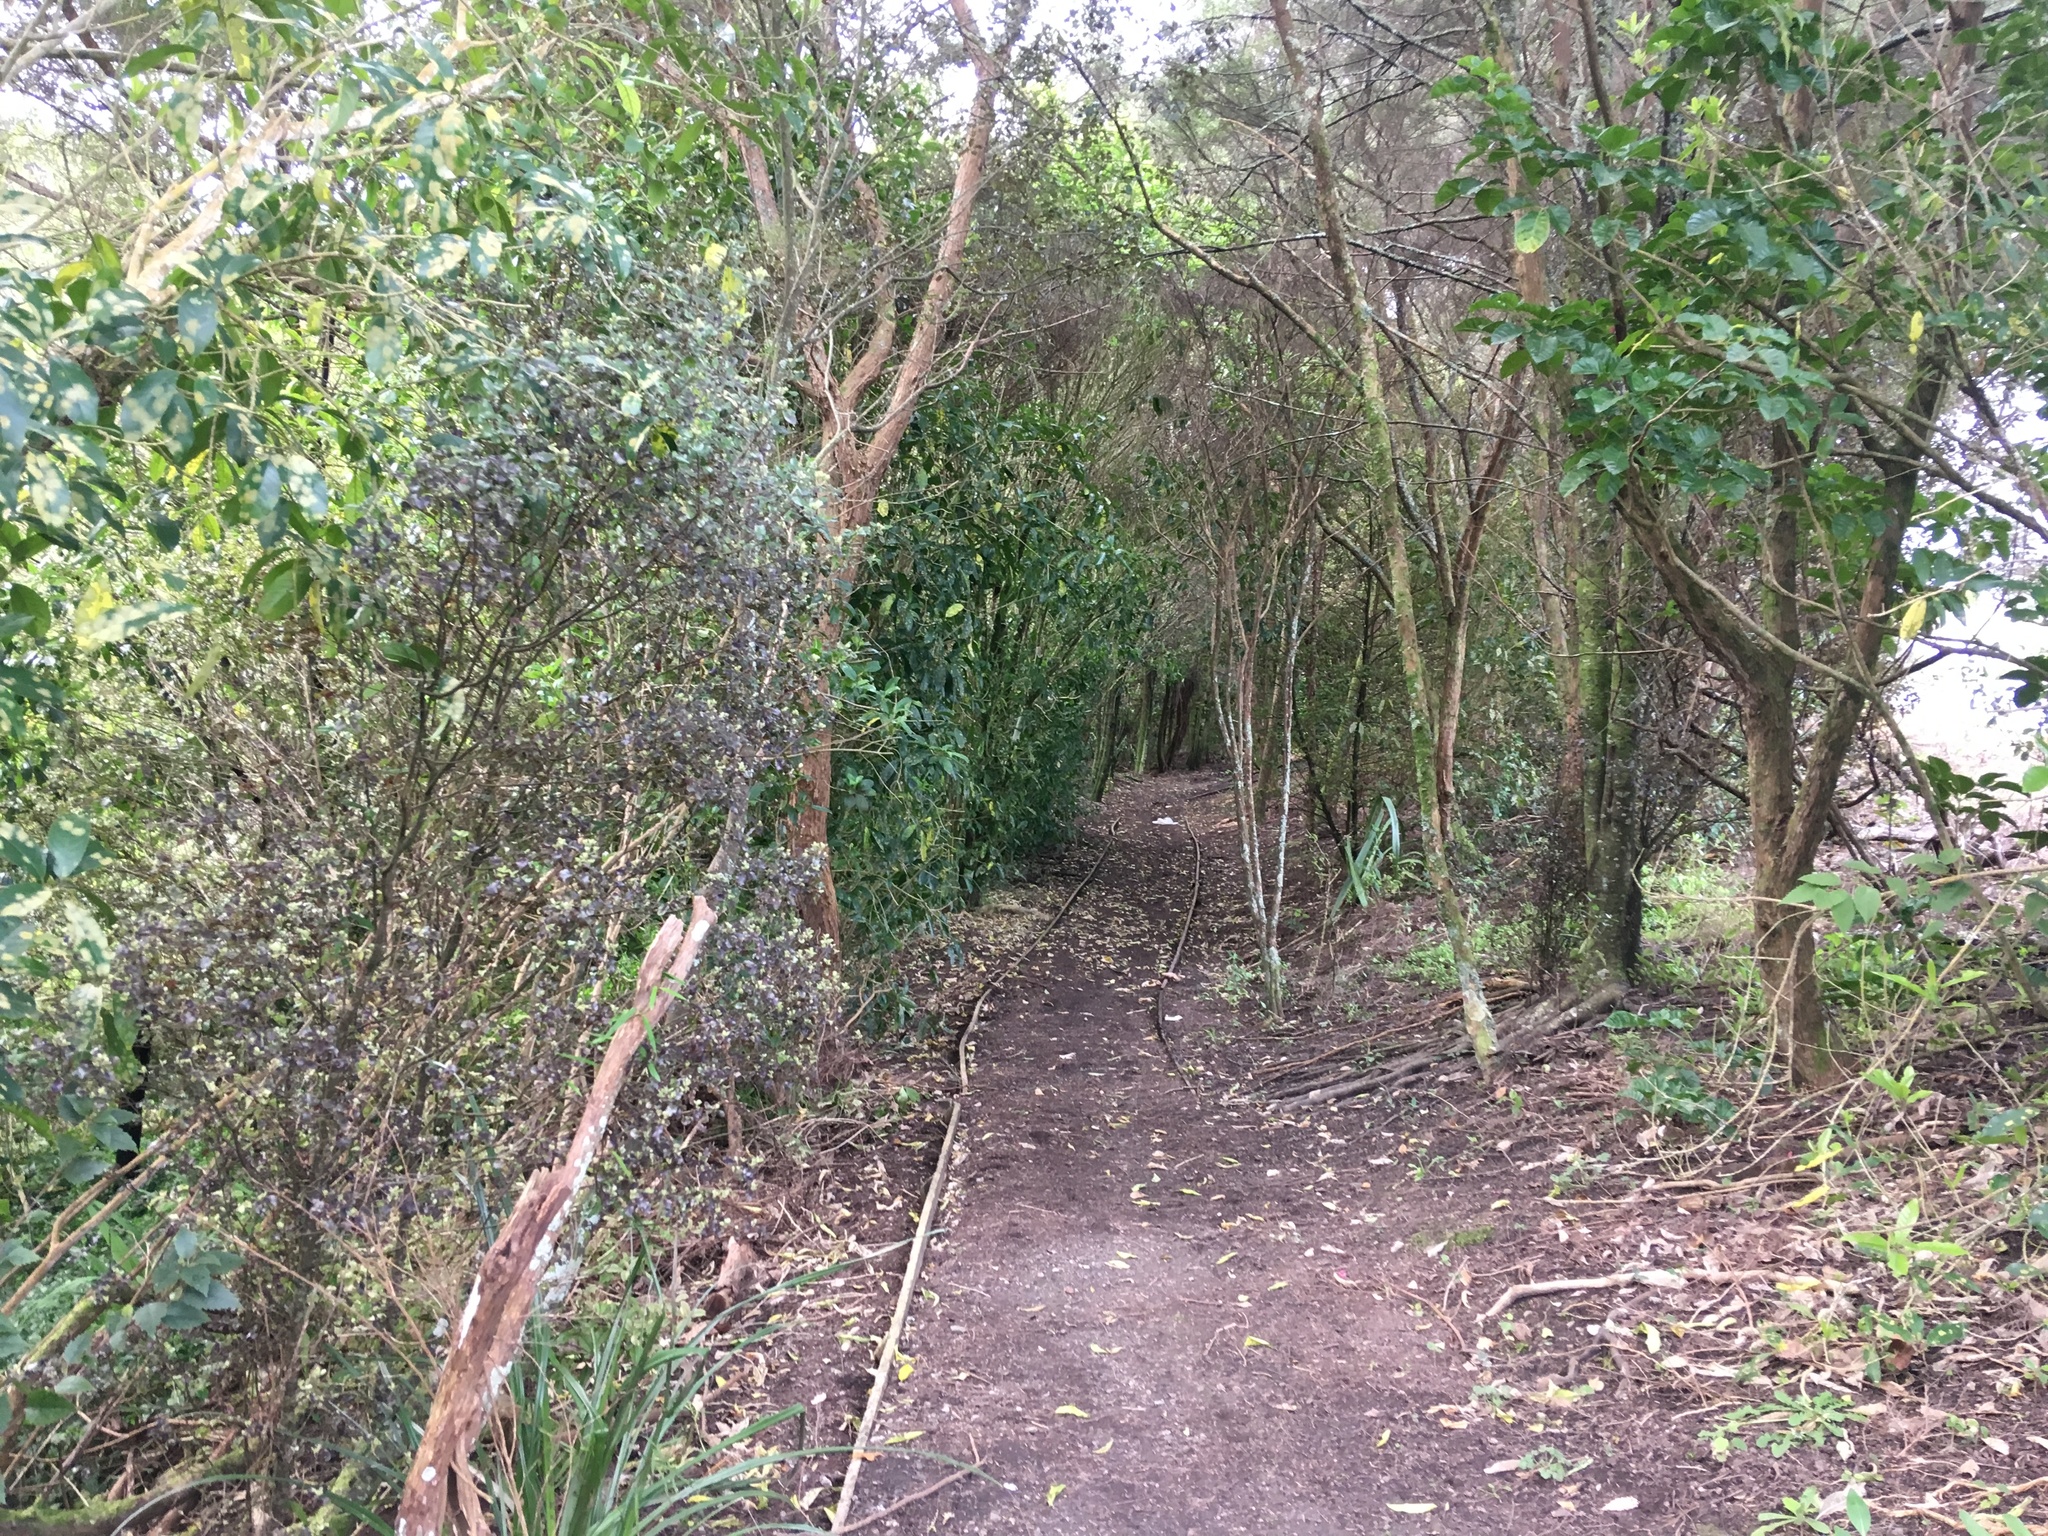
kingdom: Plantae
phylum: Tracheophyta
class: Magnoliopsida
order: Lamiales
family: Lamiaceae
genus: Vitex
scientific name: Vitex lucens
